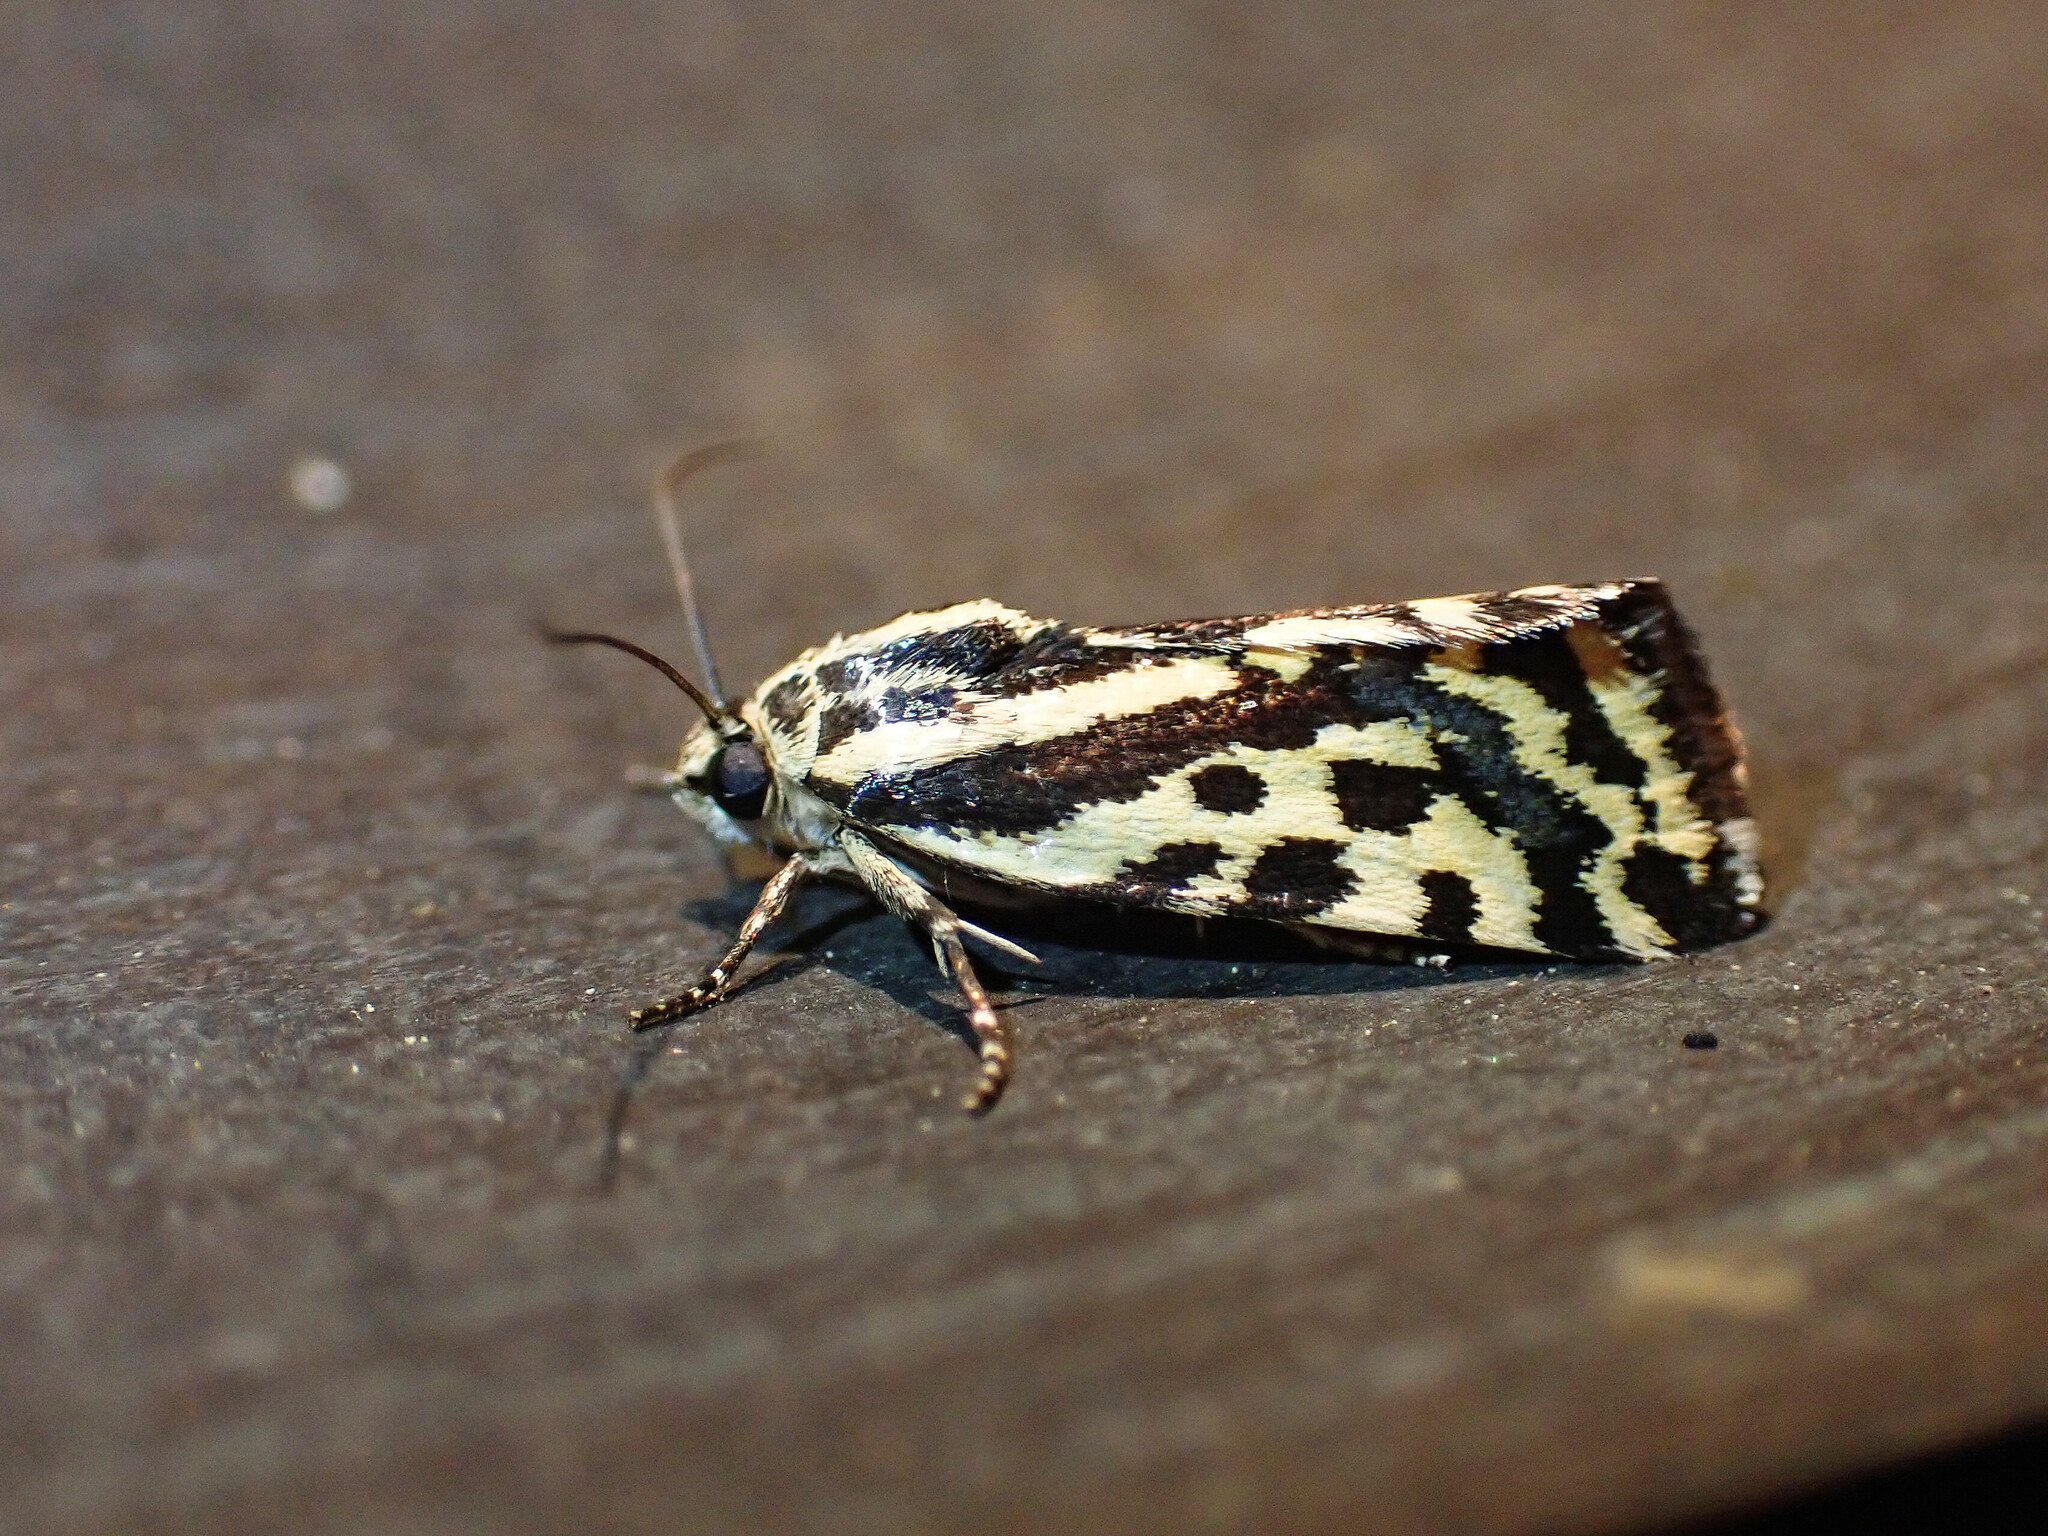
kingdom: Animalia
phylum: Arthropoda
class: Insecta
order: Lepidoptera
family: Noctuidae
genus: Acontia
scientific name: Acontia trabealis
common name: Spotted sulphur
